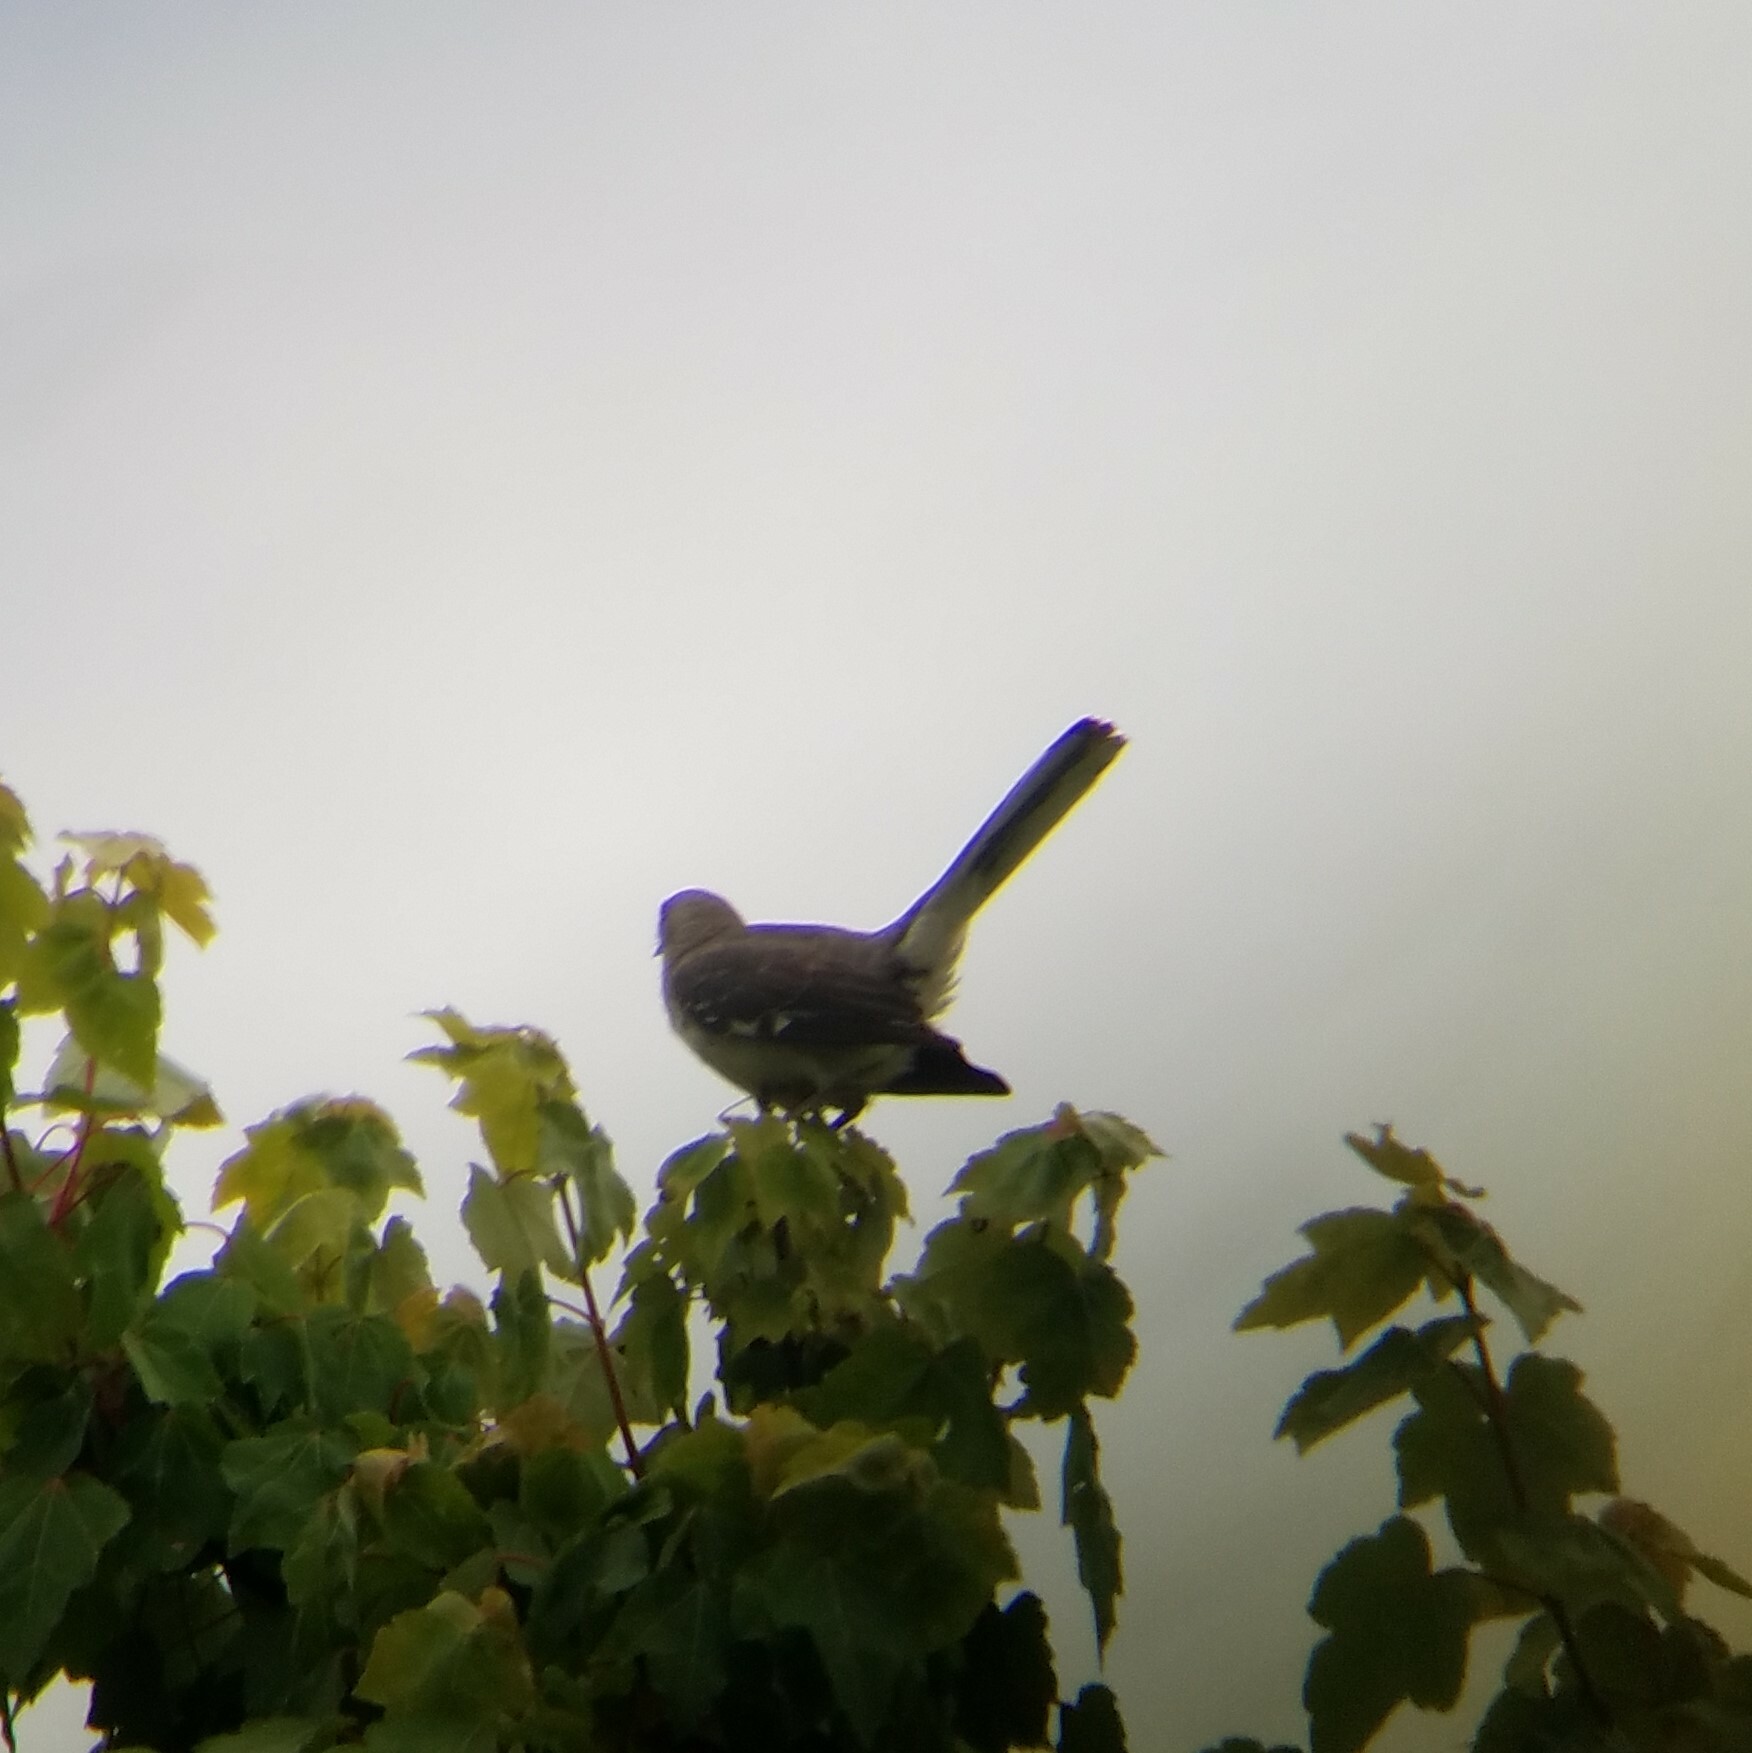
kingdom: Animalia
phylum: Chordata
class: Aves
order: Passeriformes
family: Mimidae
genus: Mimus
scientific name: Mimus polyglottos
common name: Northern mockingbird
